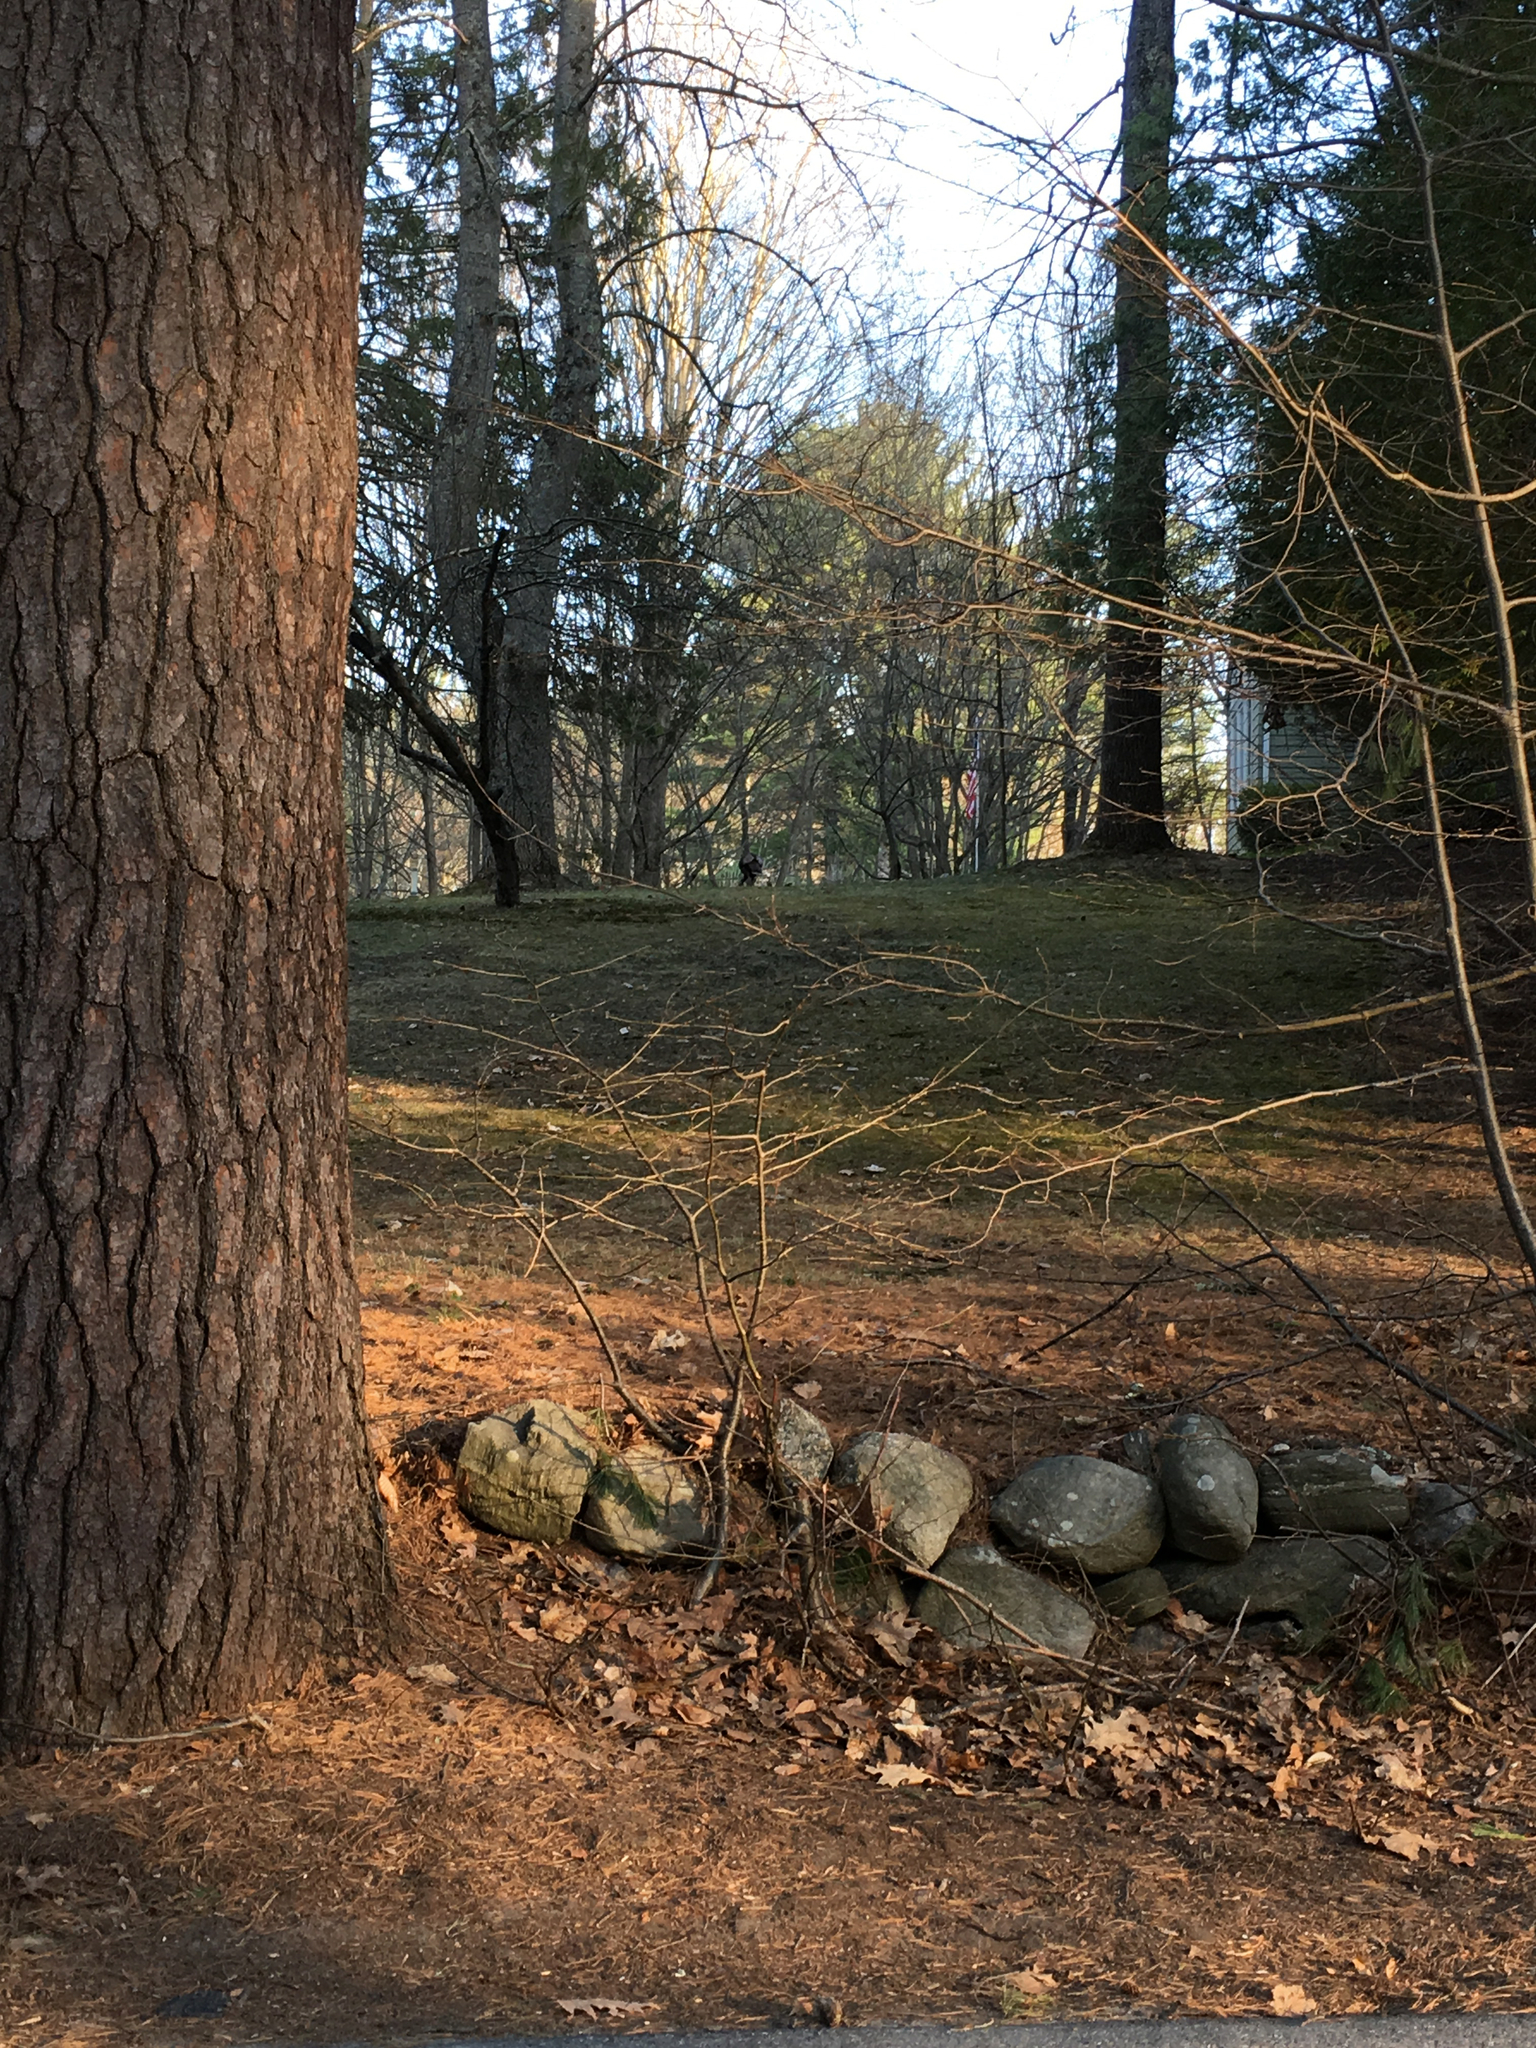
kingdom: Animalia
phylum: Chordata
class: Aves
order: Galliformes
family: Phasianidae
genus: Meleagris
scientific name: Meleagris gallopavo
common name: Wild turkey
